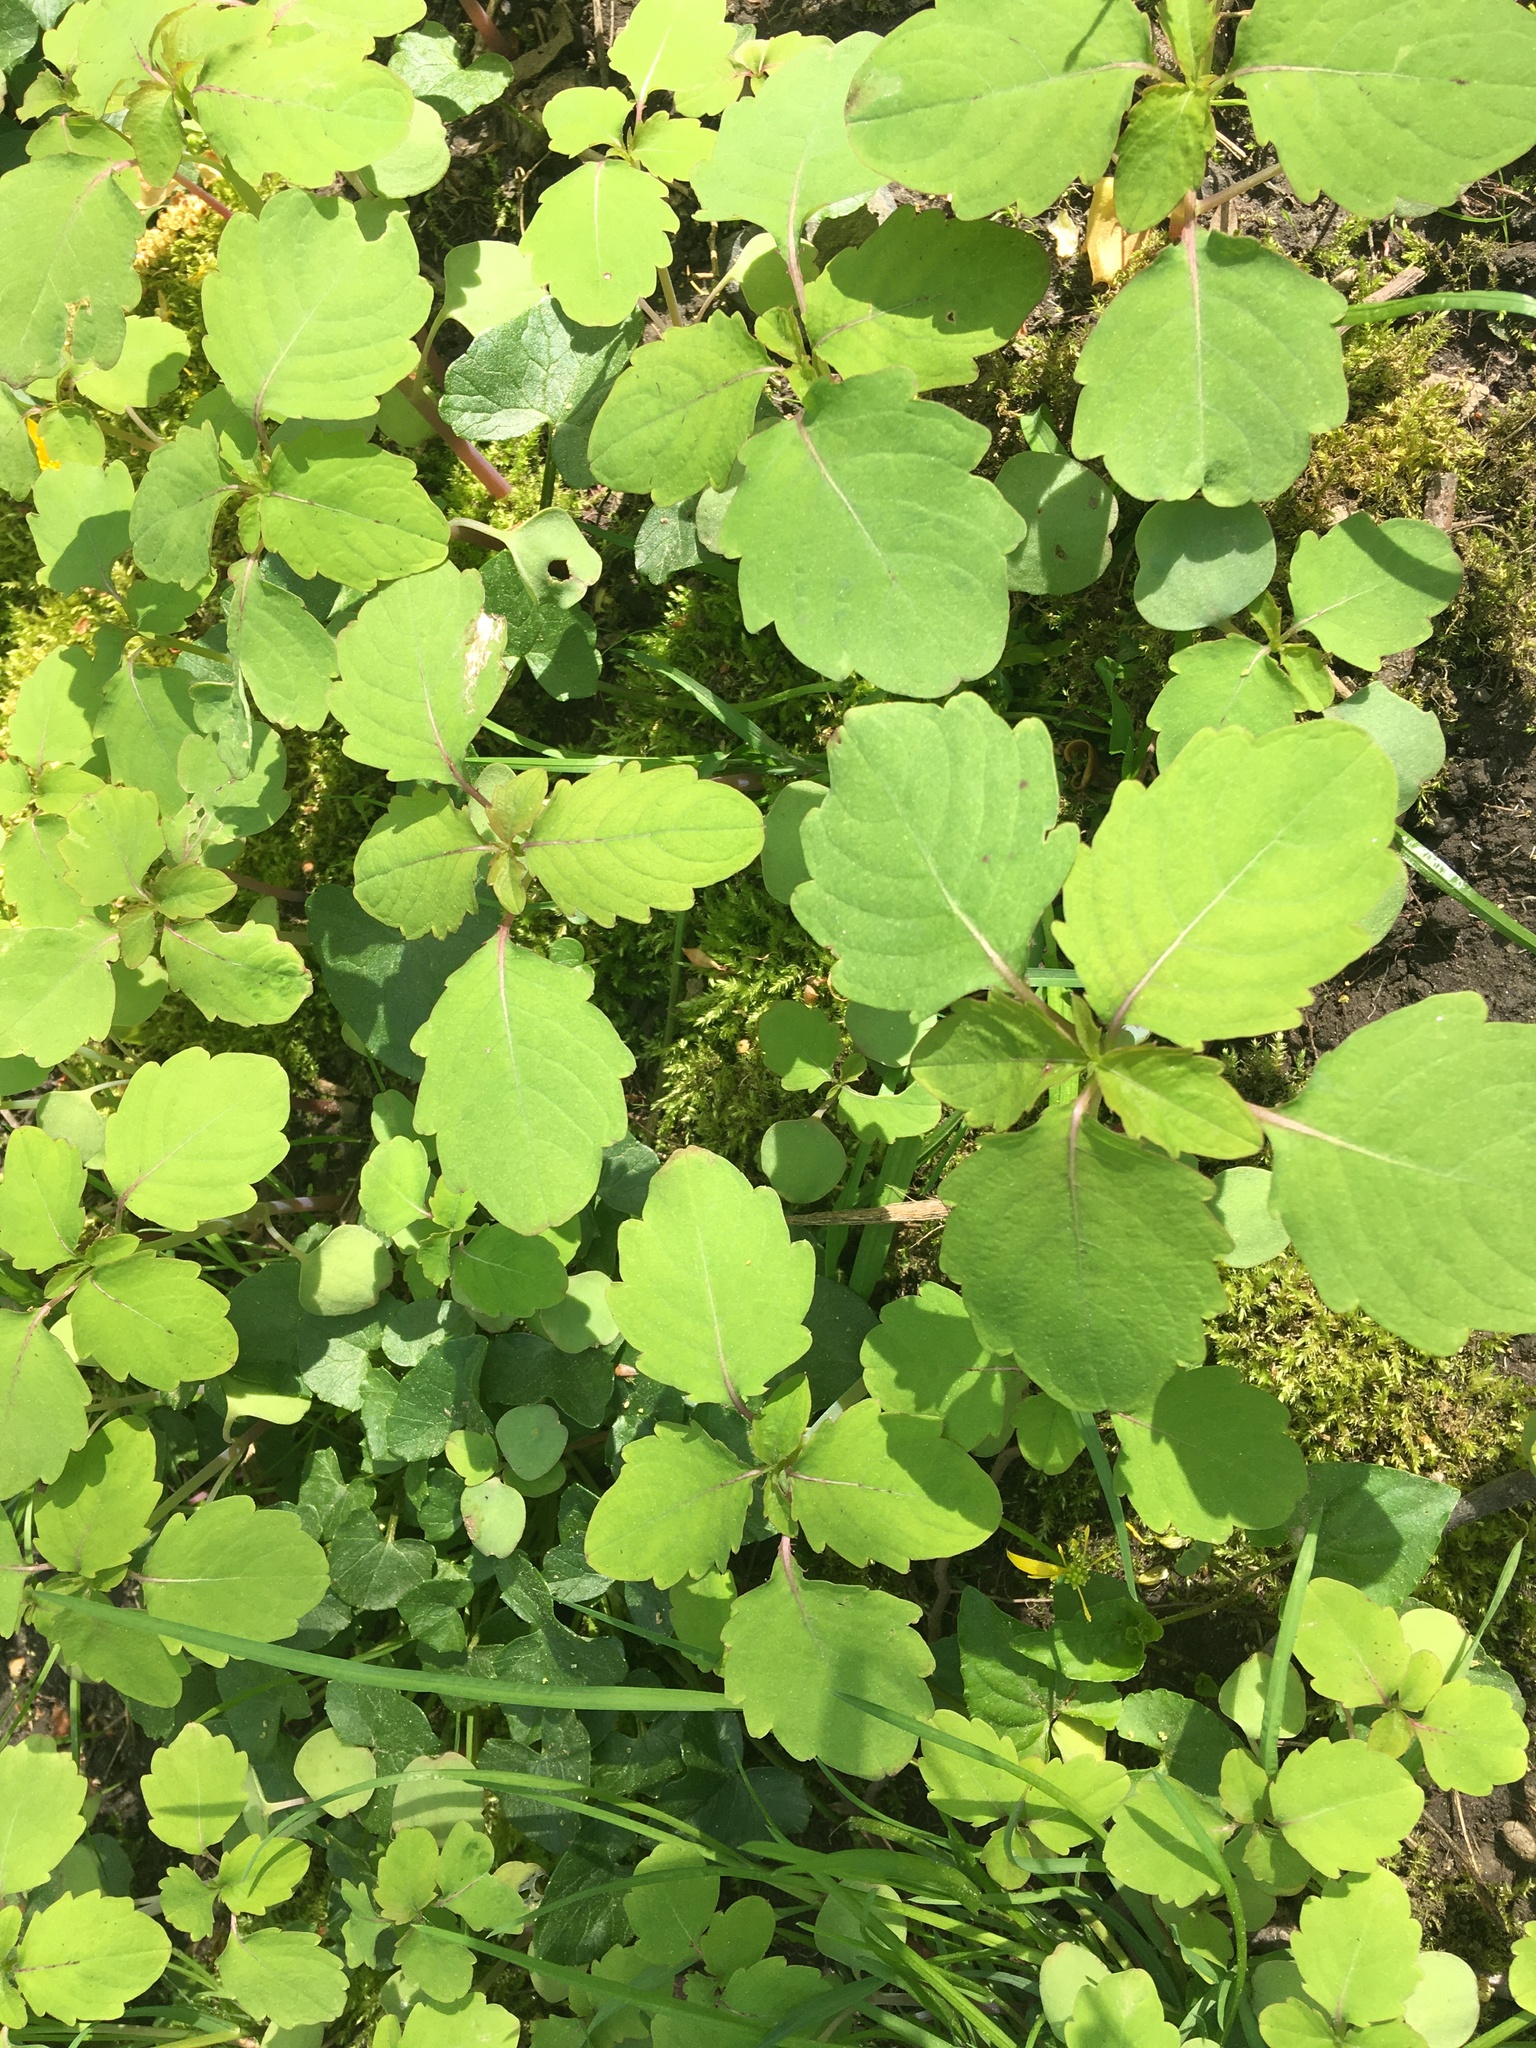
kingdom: Plantae
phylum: Tracheophyta
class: Magnoliopsida
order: Ericales
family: Balsaminaceae
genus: Impatiens
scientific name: Impatiens capensis
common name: Orange balsam
